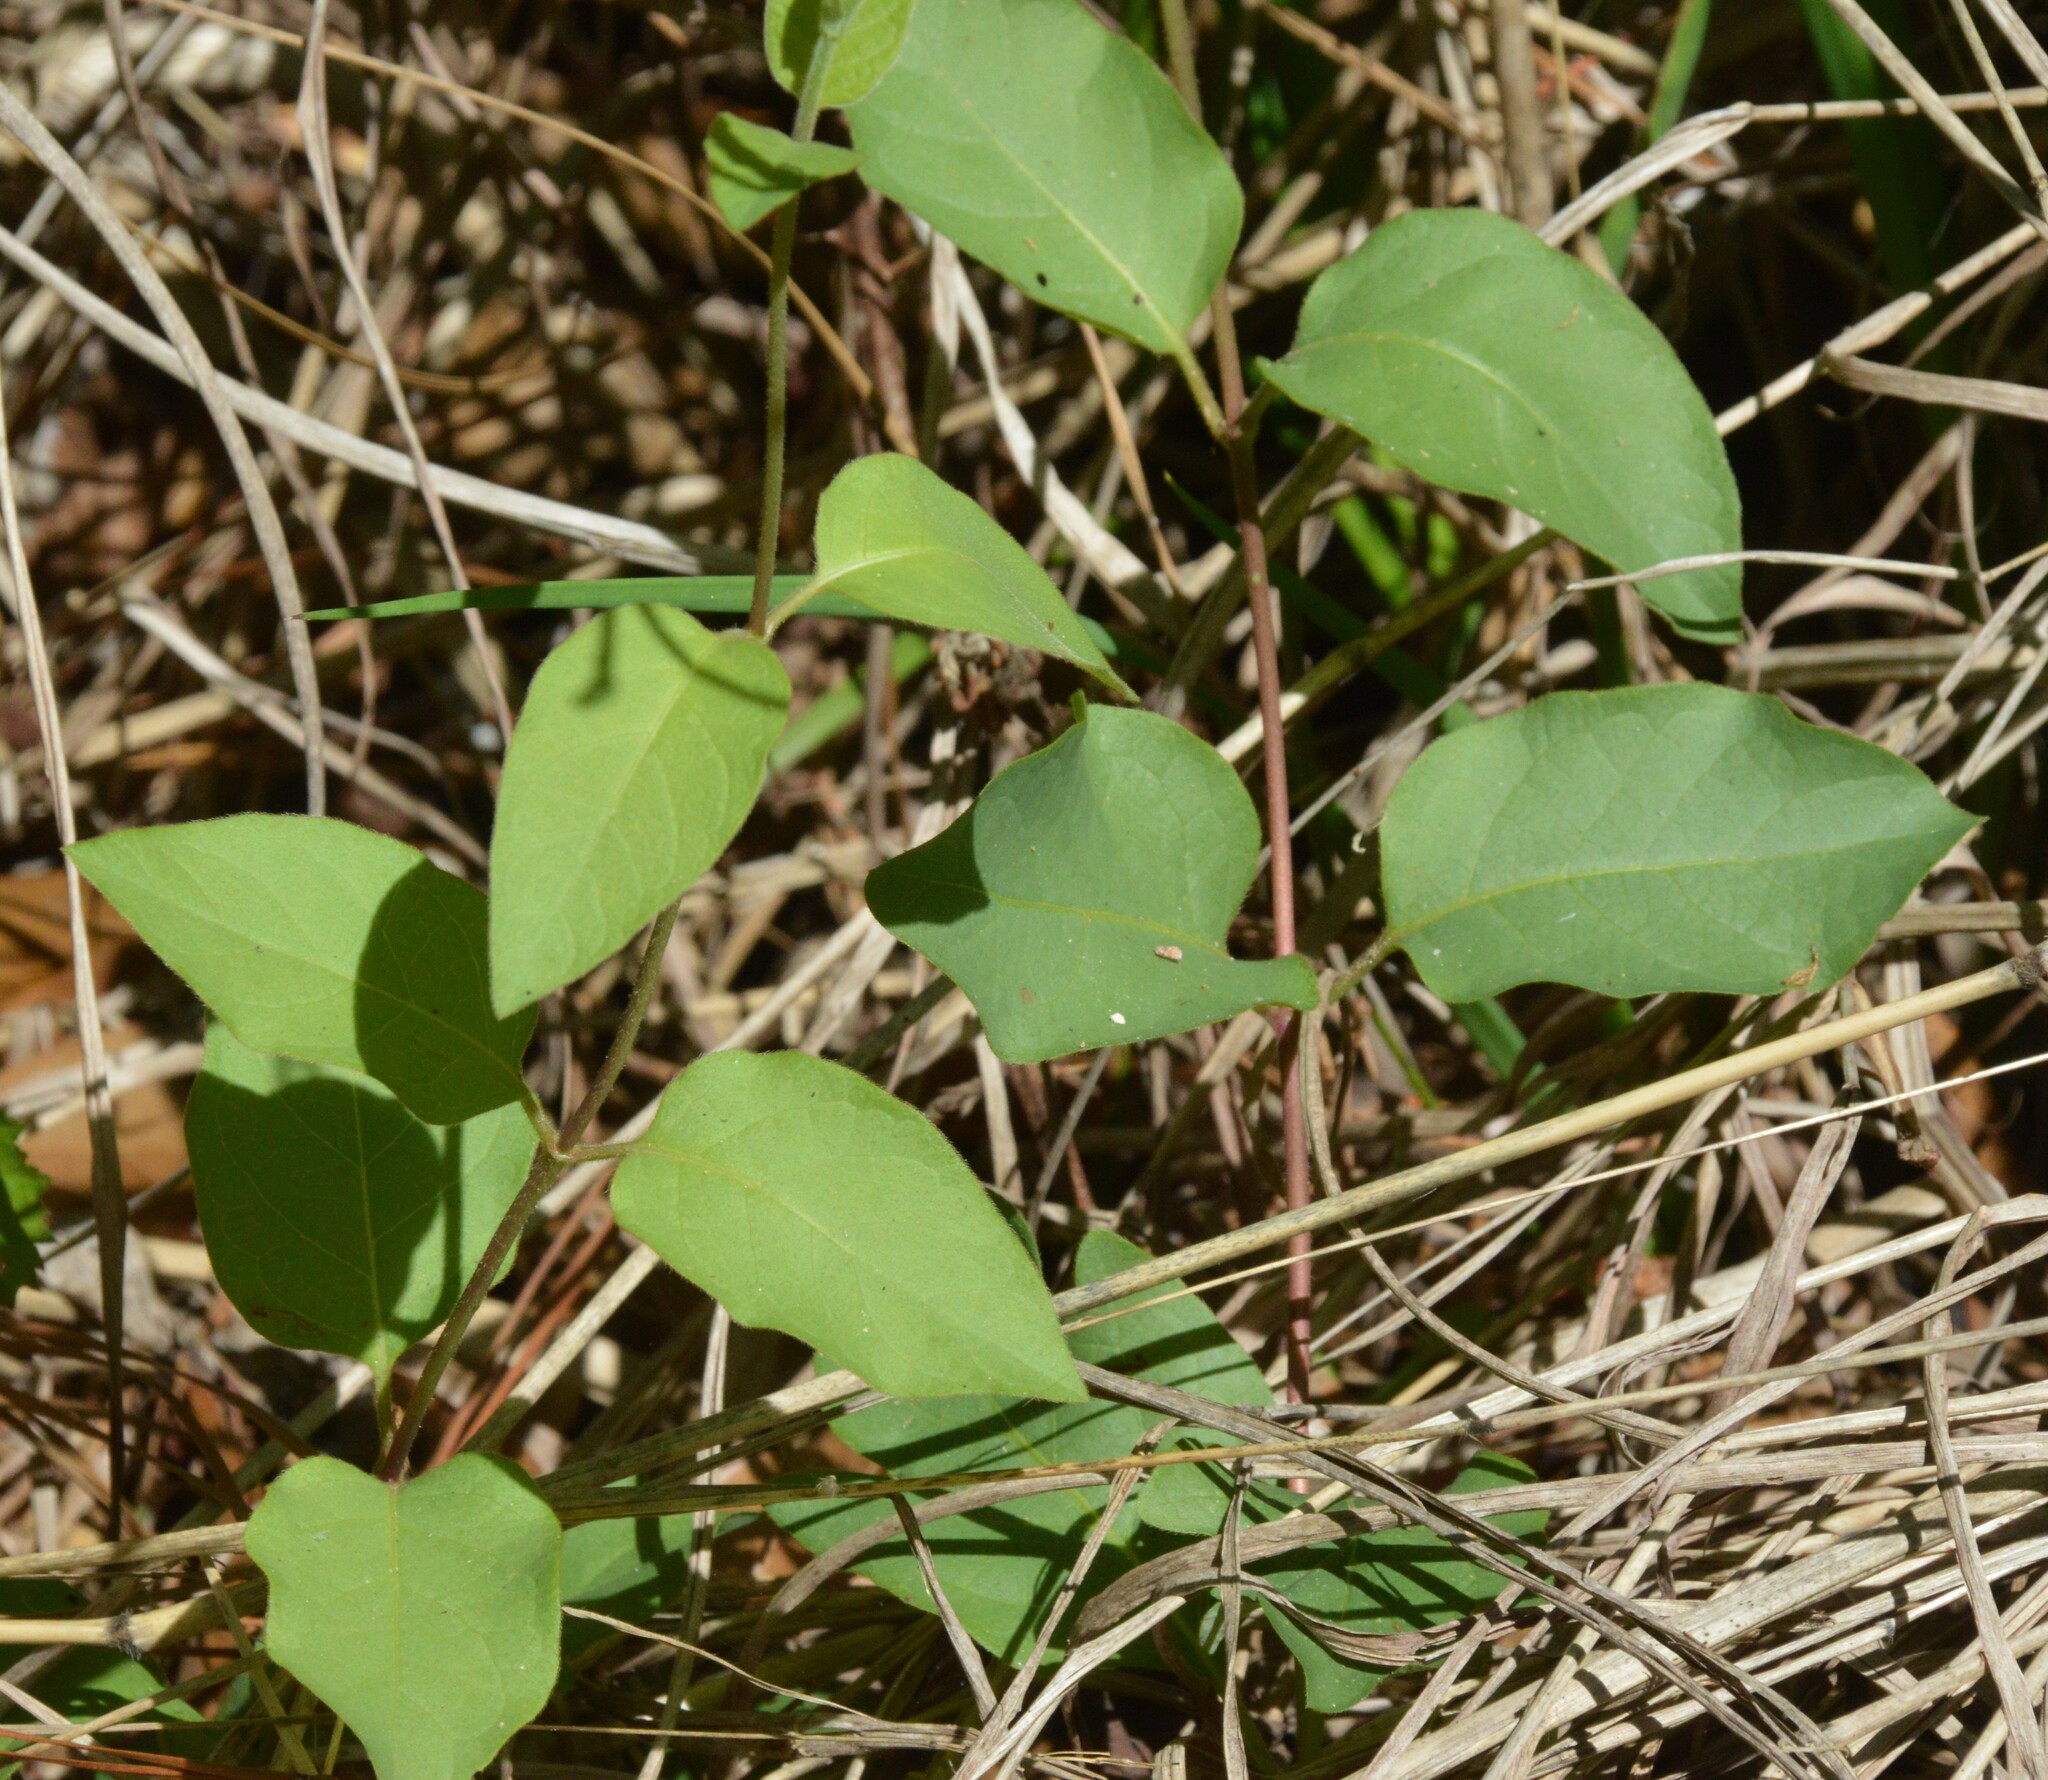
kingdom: Plantae
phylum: Tracheophyta
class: Magnoliopsida
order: Dipsacales
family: Caprifoliaceae
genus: Lonicera
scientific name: Lonicera japonica
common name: Japanese honeysuckle
